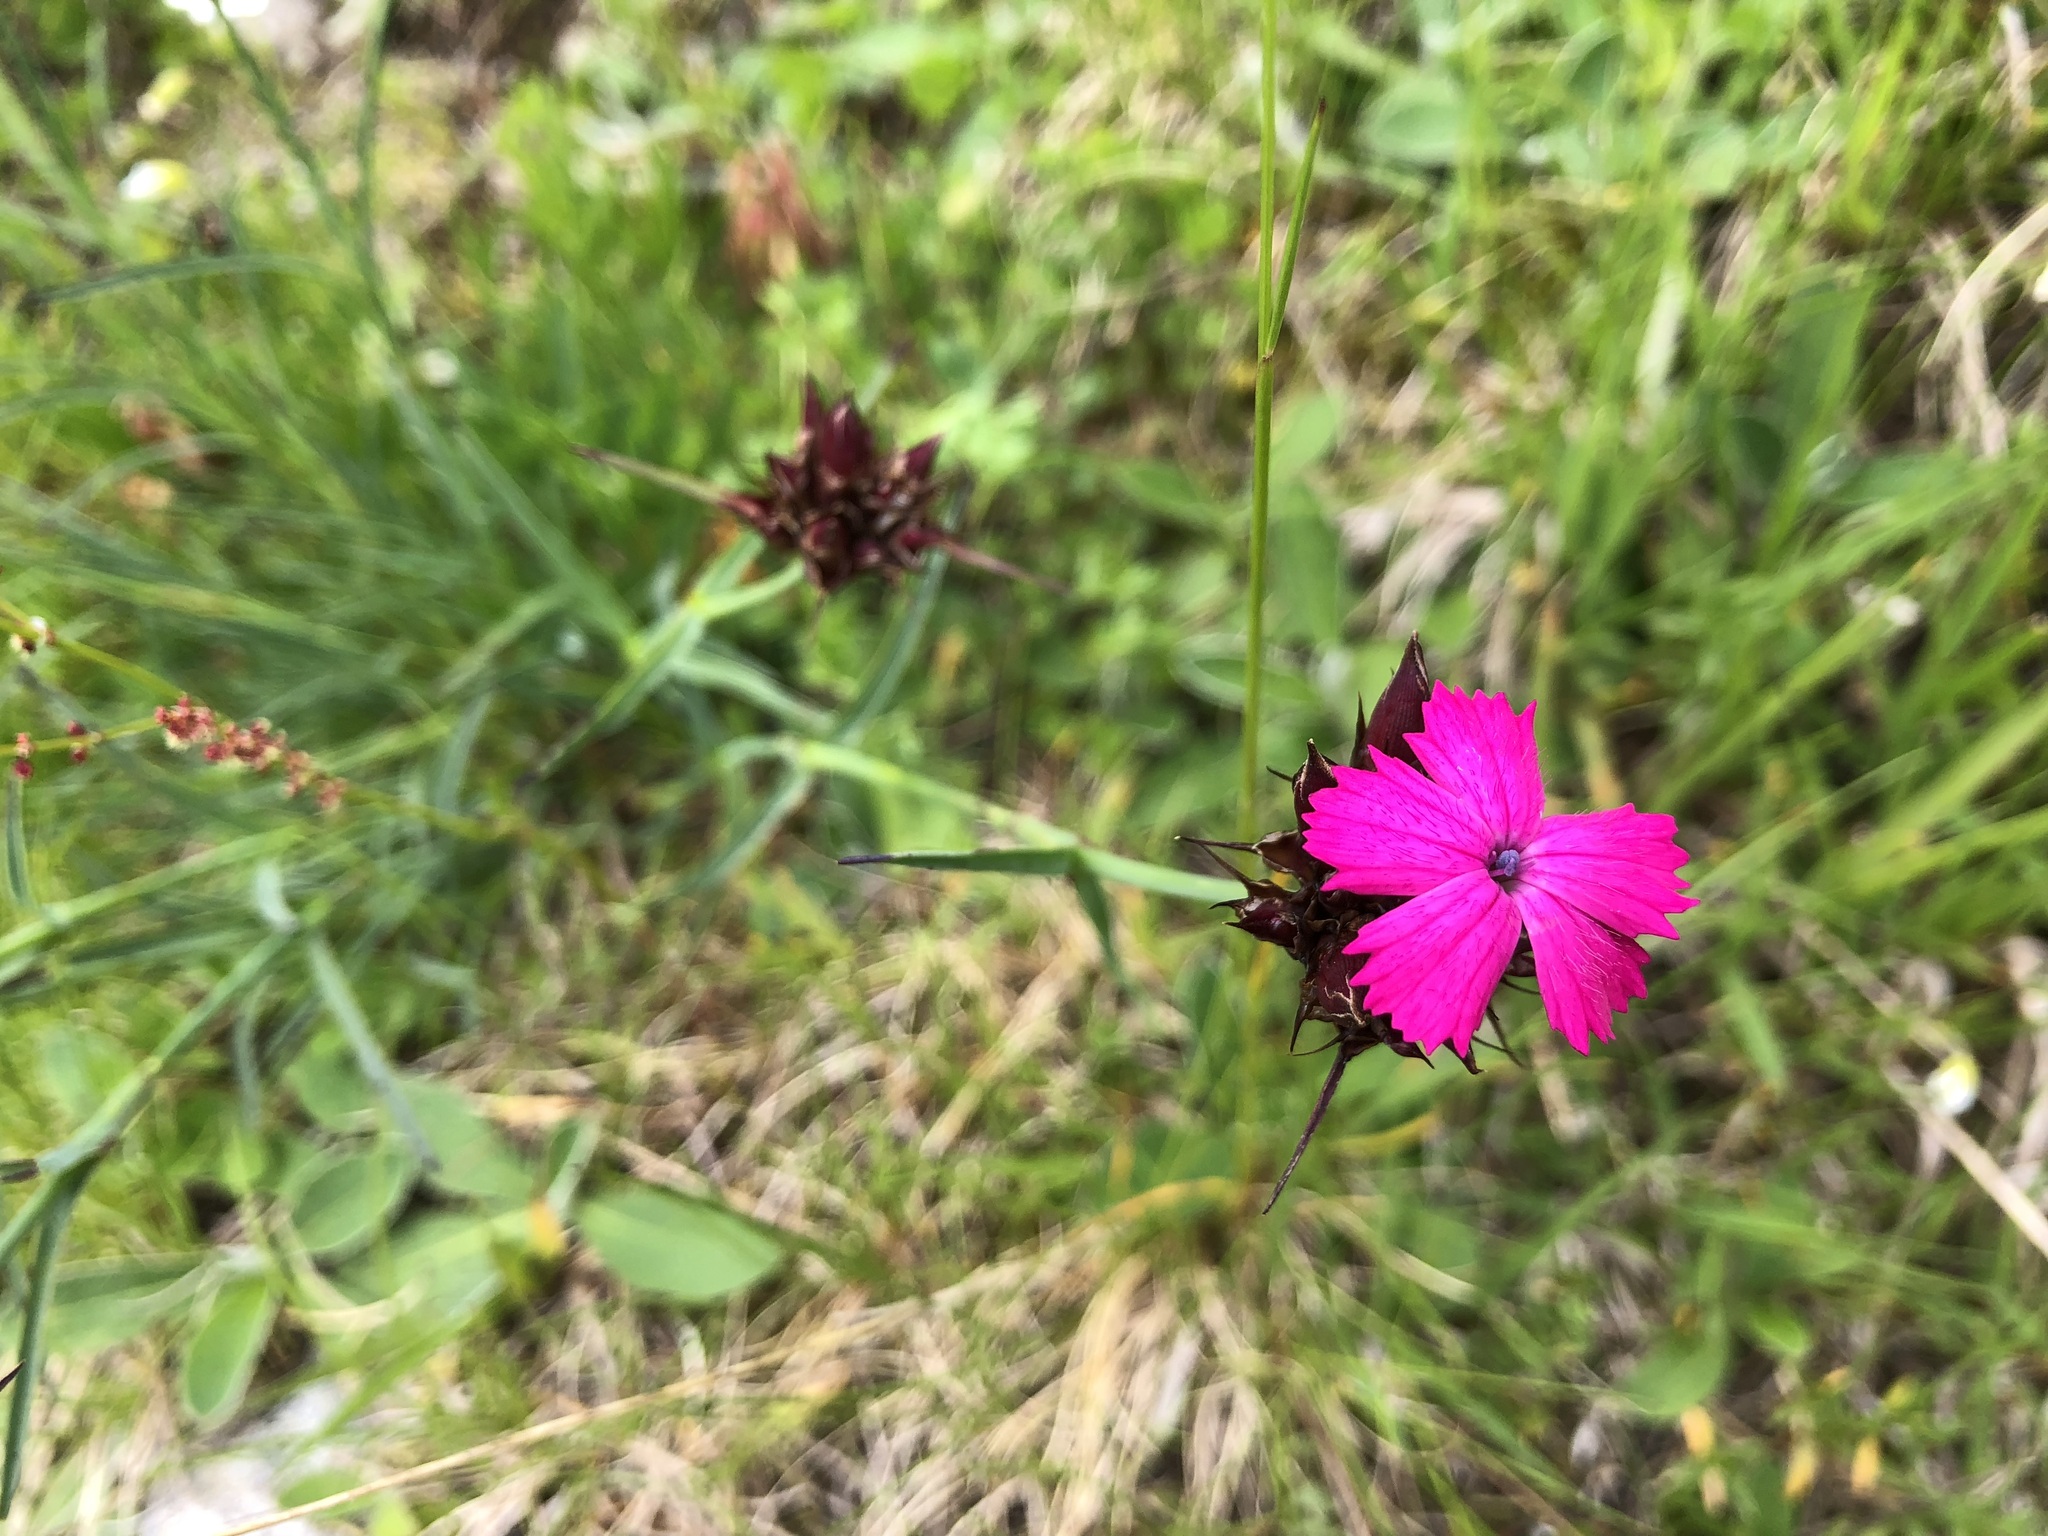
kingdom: Plantae
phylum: Tracheophyta
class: Magnoliopsida
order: Caryophyllales
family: Caryophyllaceae
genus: Dianthus
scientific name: Dianthus carthusianorum
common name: Carthusian pink
